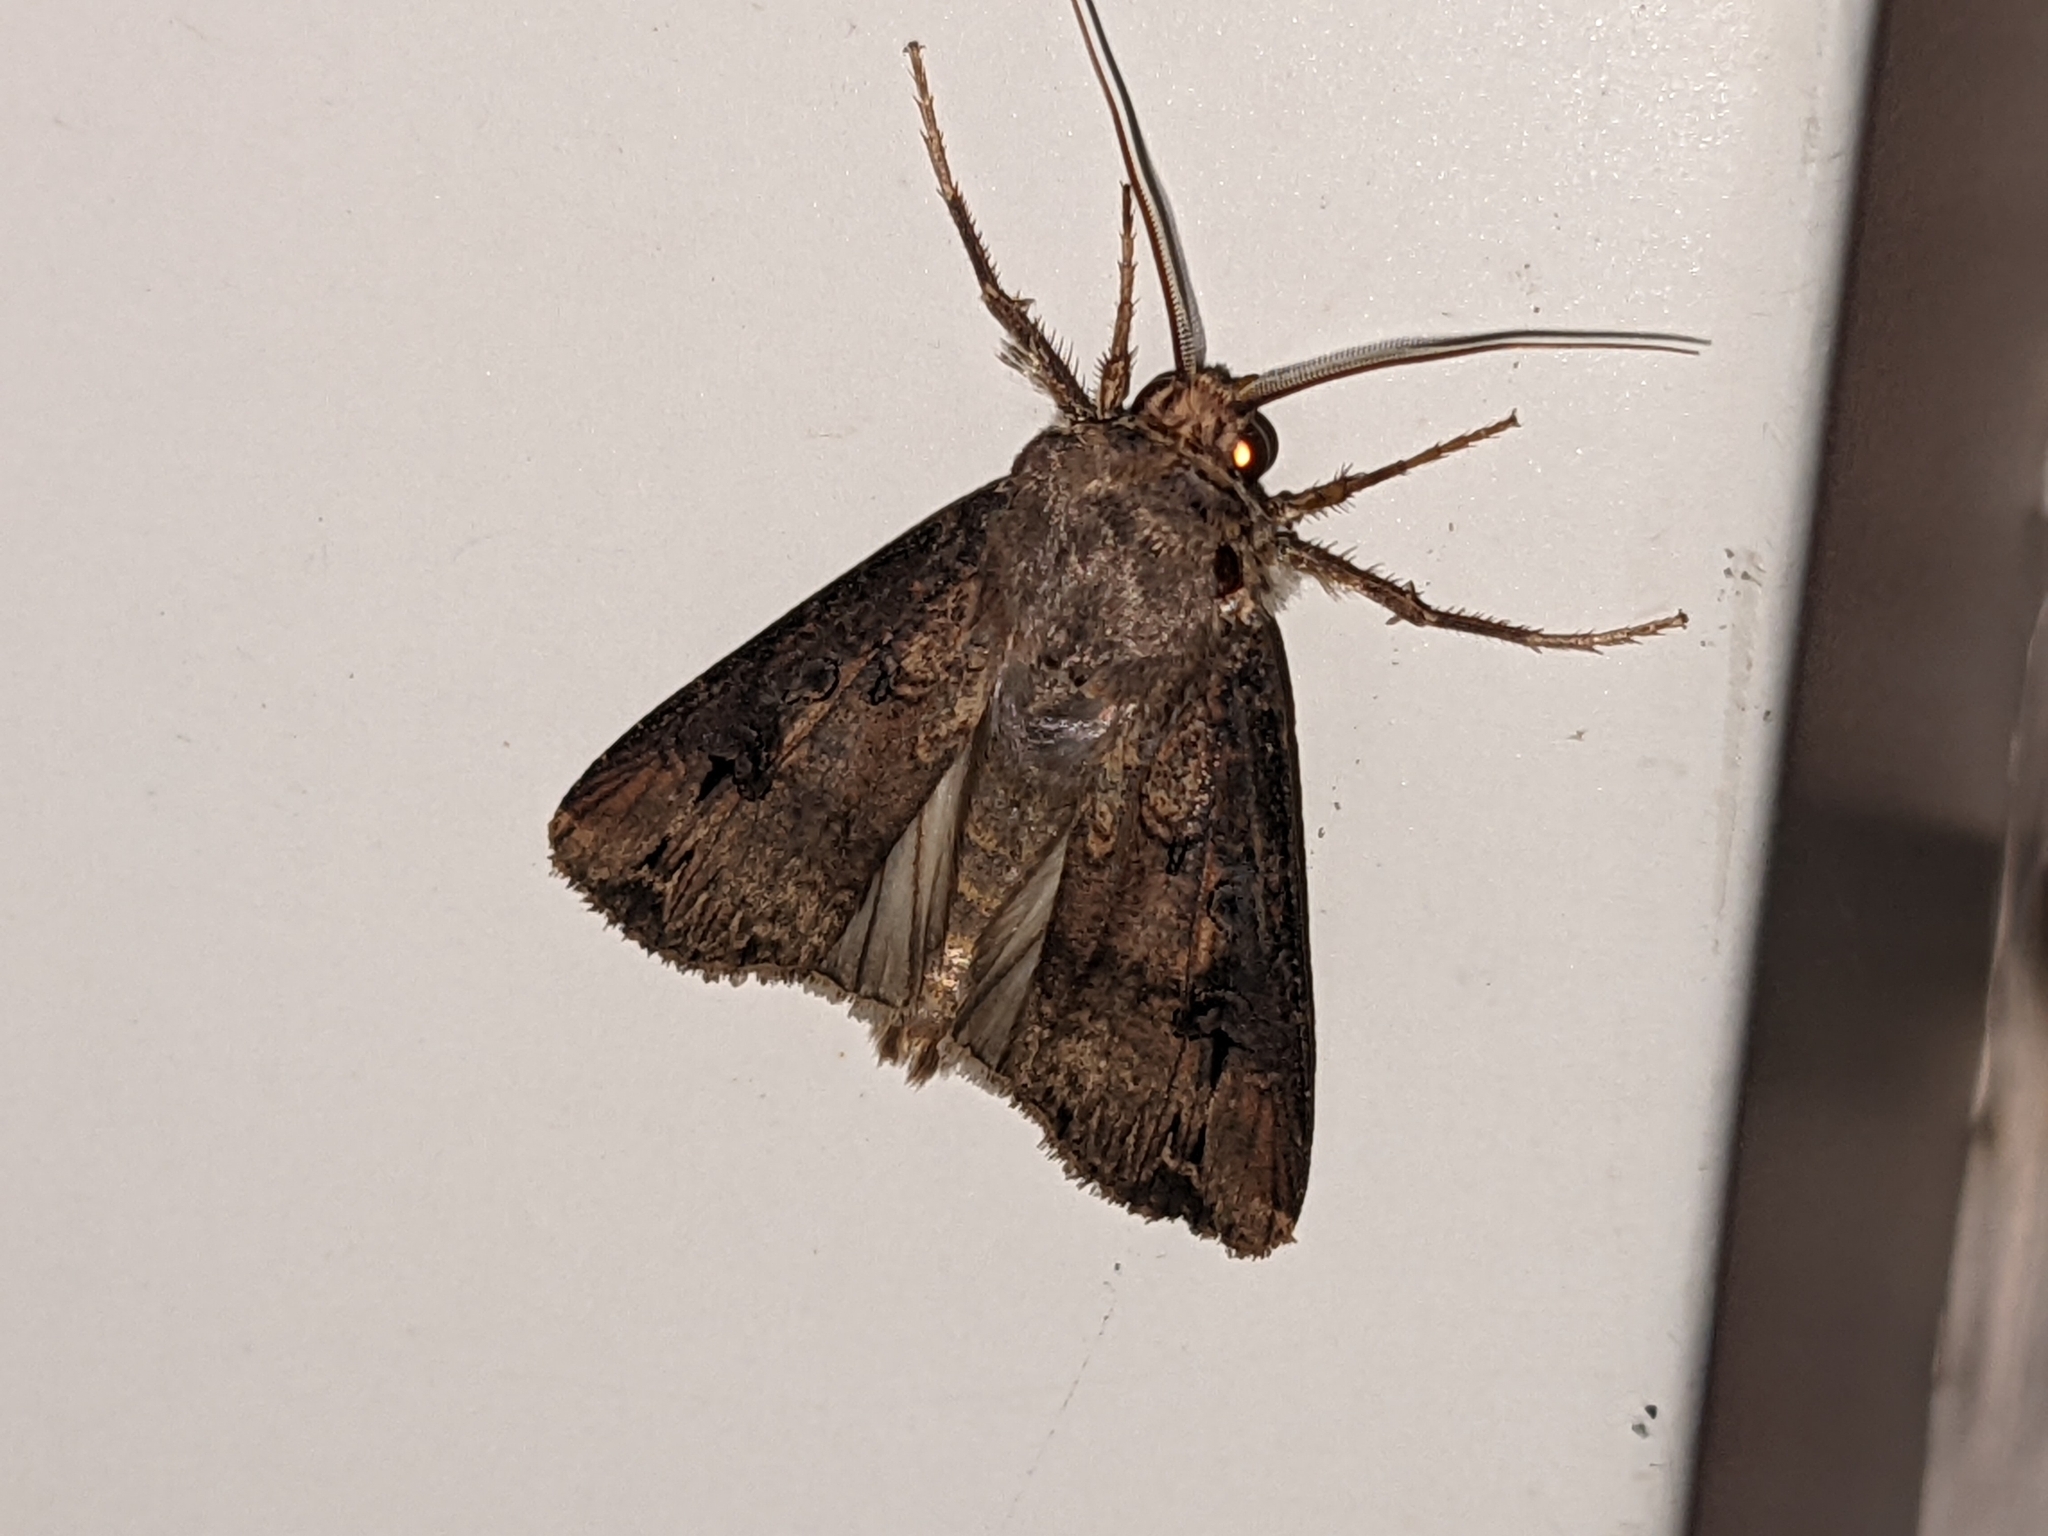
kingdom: Animalia
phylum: Arthropoda
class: Insecta
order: Lepidoptera
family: Noctuidae
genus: Agrotis
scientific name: Agrotis ipsilon
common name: Dark sword-grass
